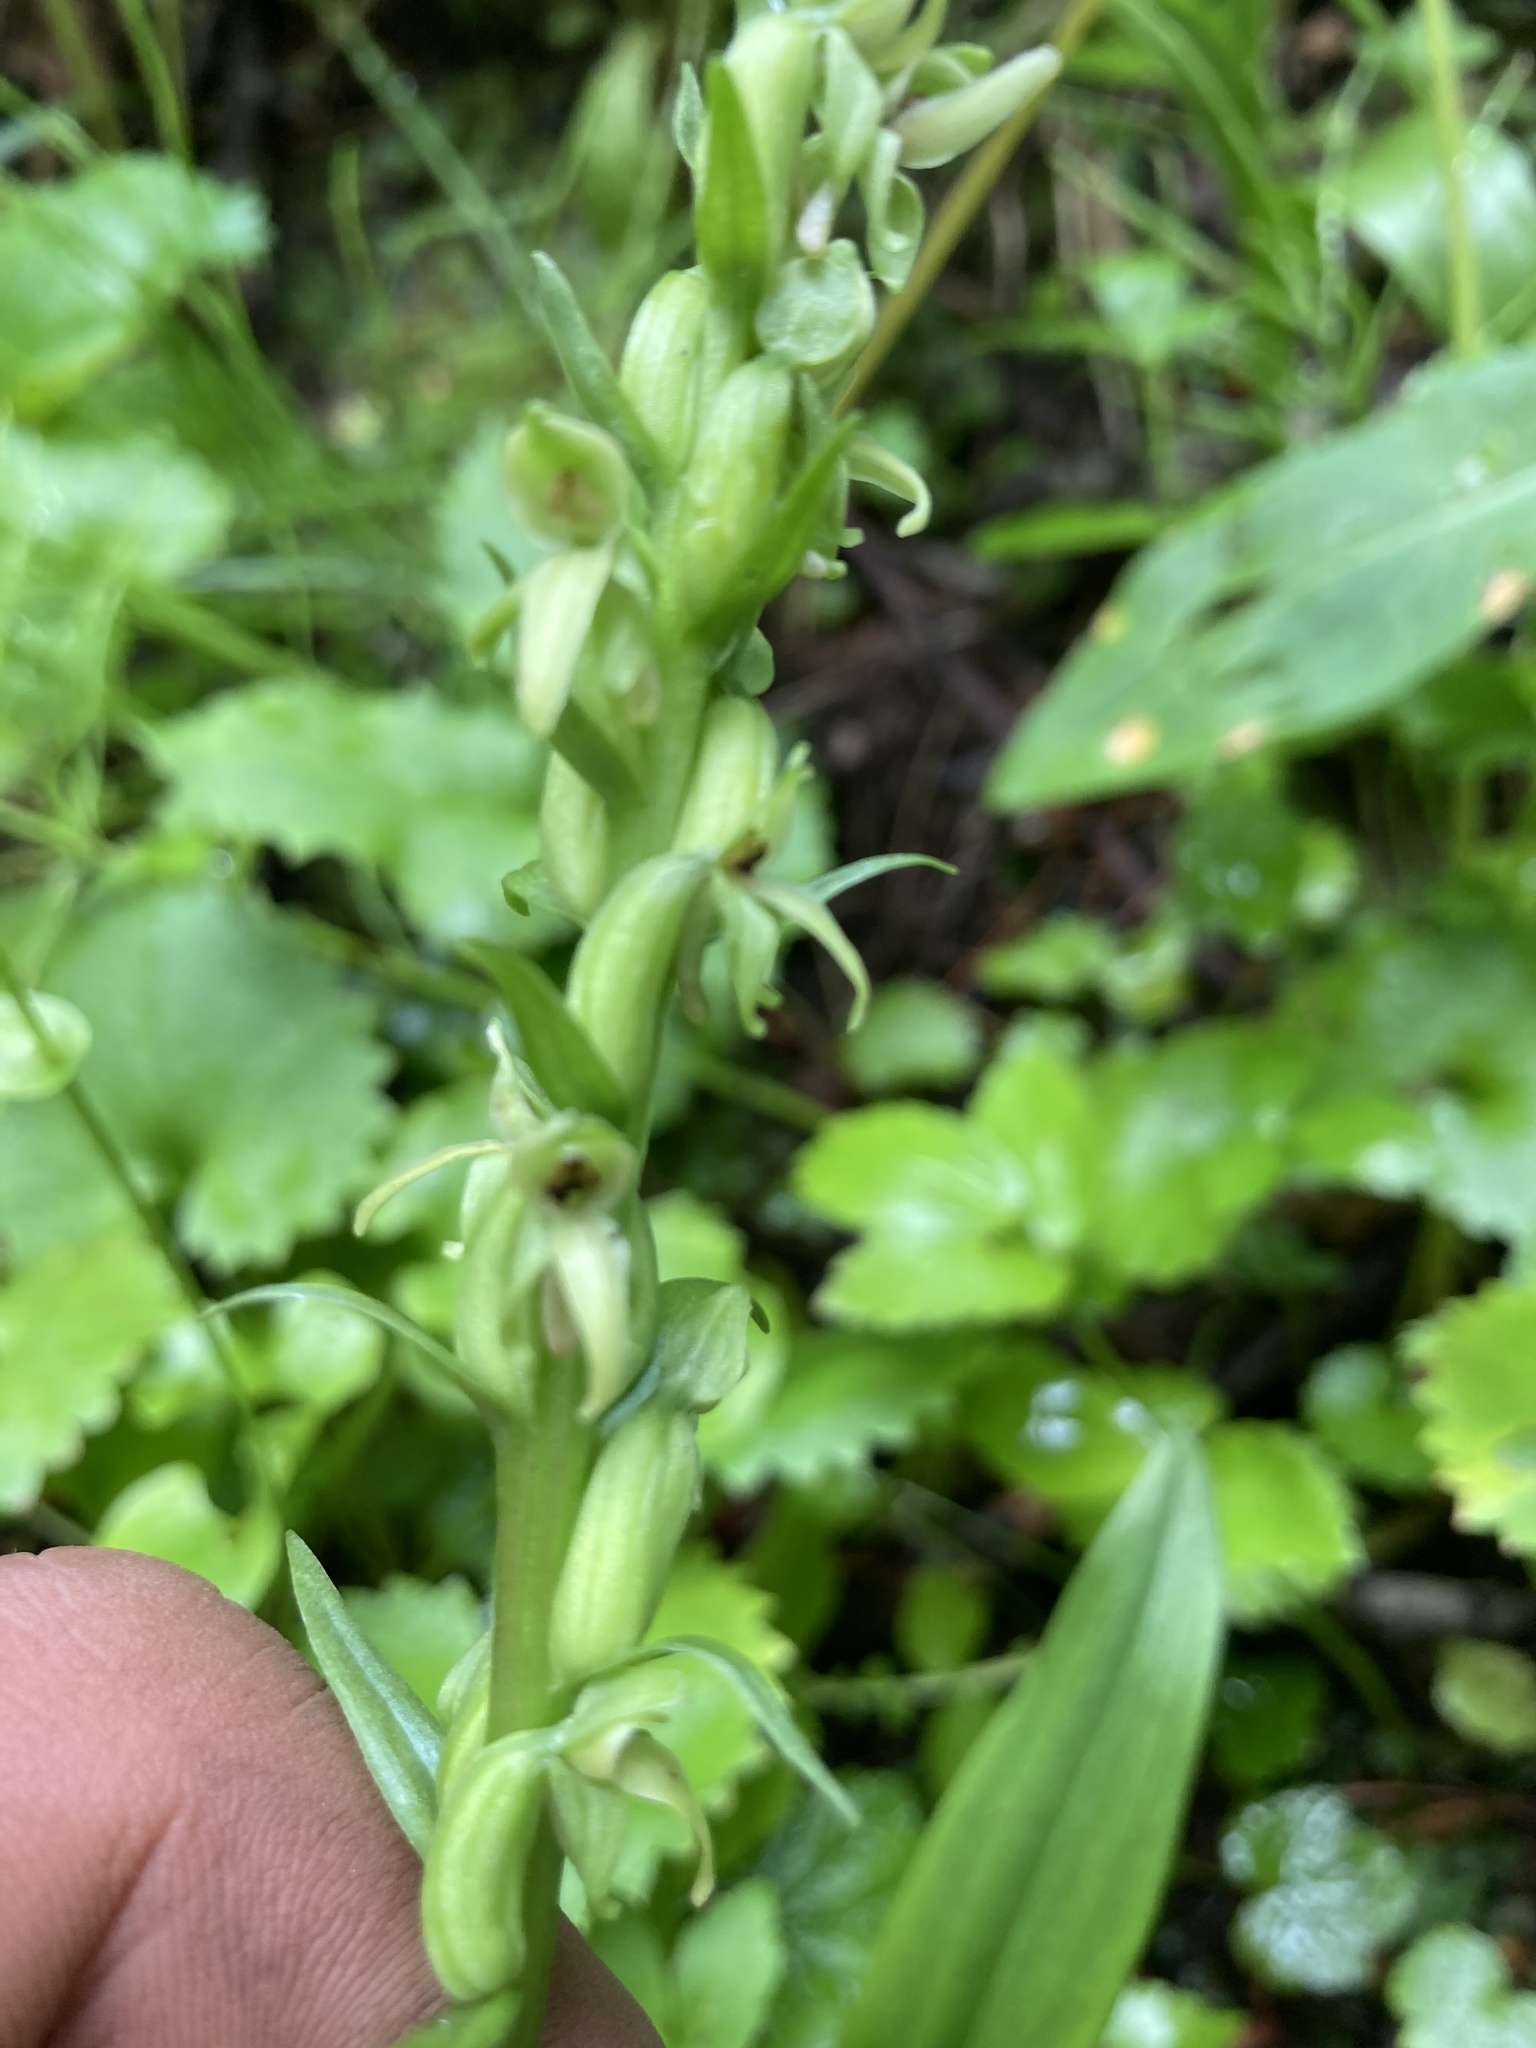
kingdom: Plantae
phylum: Tracheophyta
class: Liliopsida
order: Asparagales
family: Orchidaceae
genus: Platanthera
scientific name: Platanthera huronensis
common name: Fragrant green orchid
